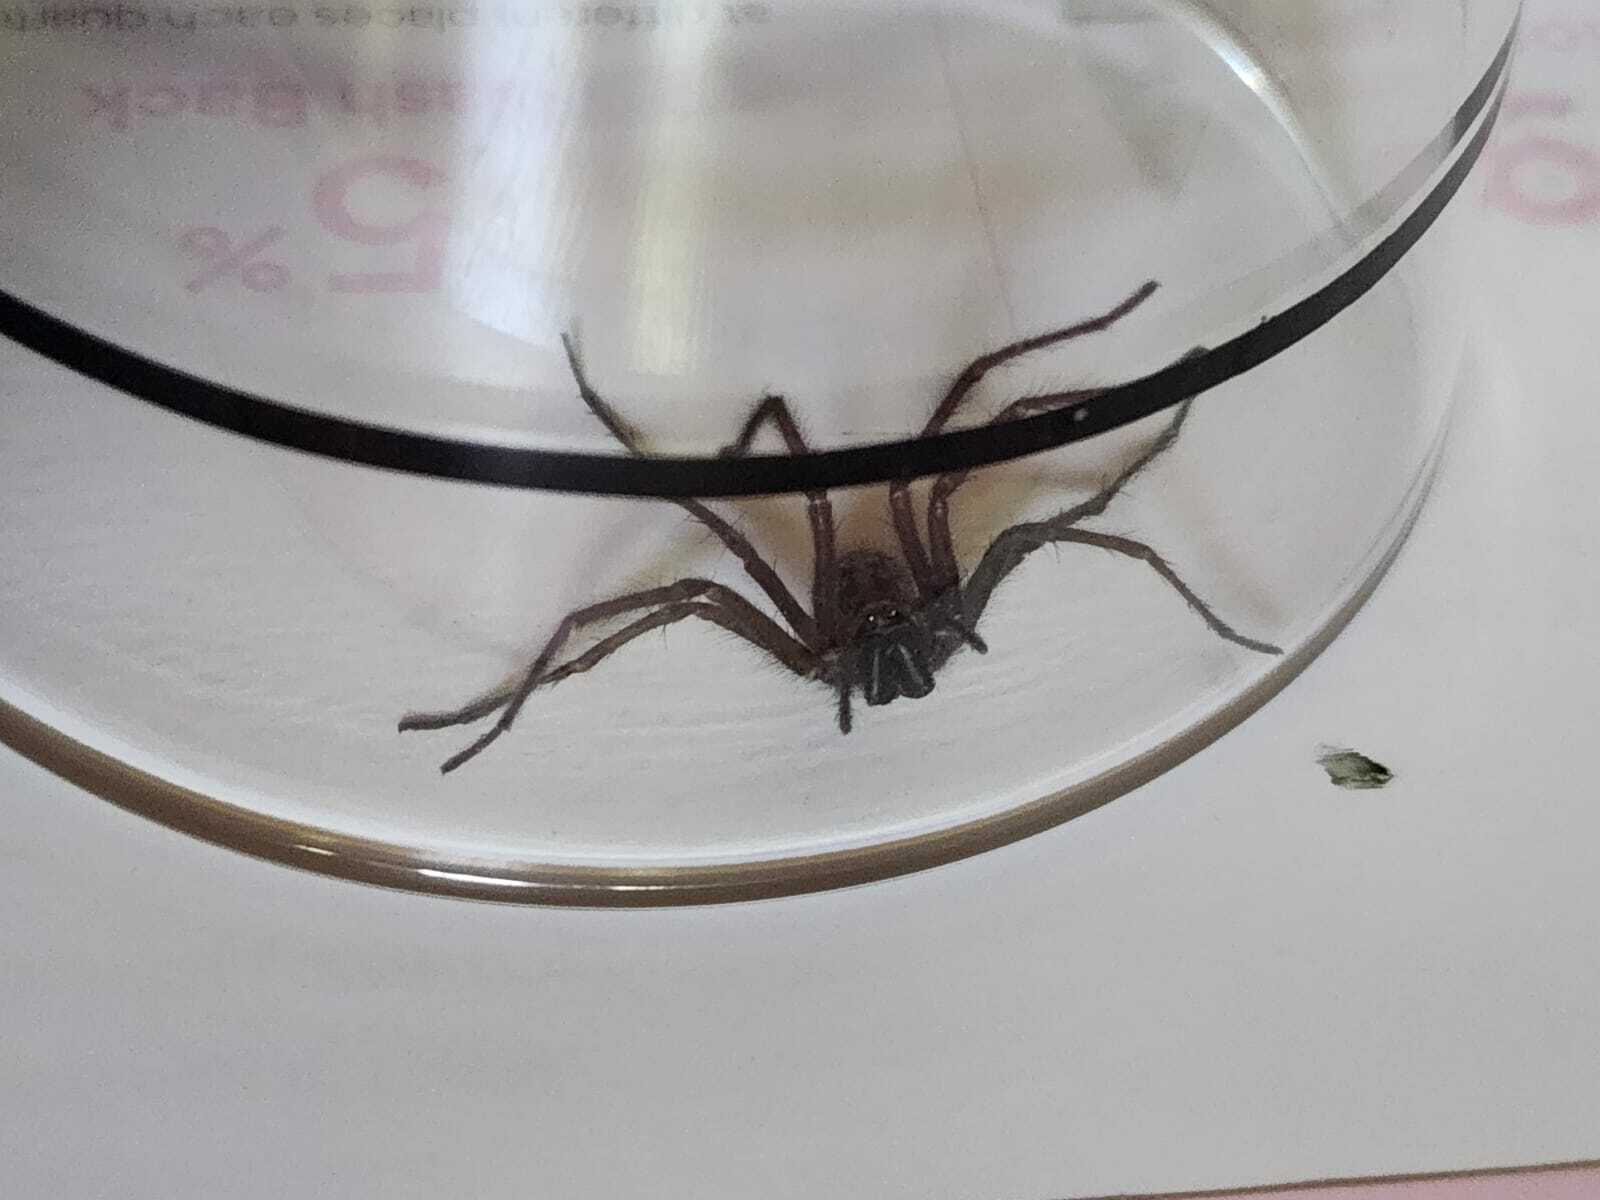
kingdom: Animalia
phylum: Arthropoda
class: Arachnida
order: Araneae
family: Agelenidae
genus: Eratigena
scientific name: Eratigena duellica
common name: Giant house spider
